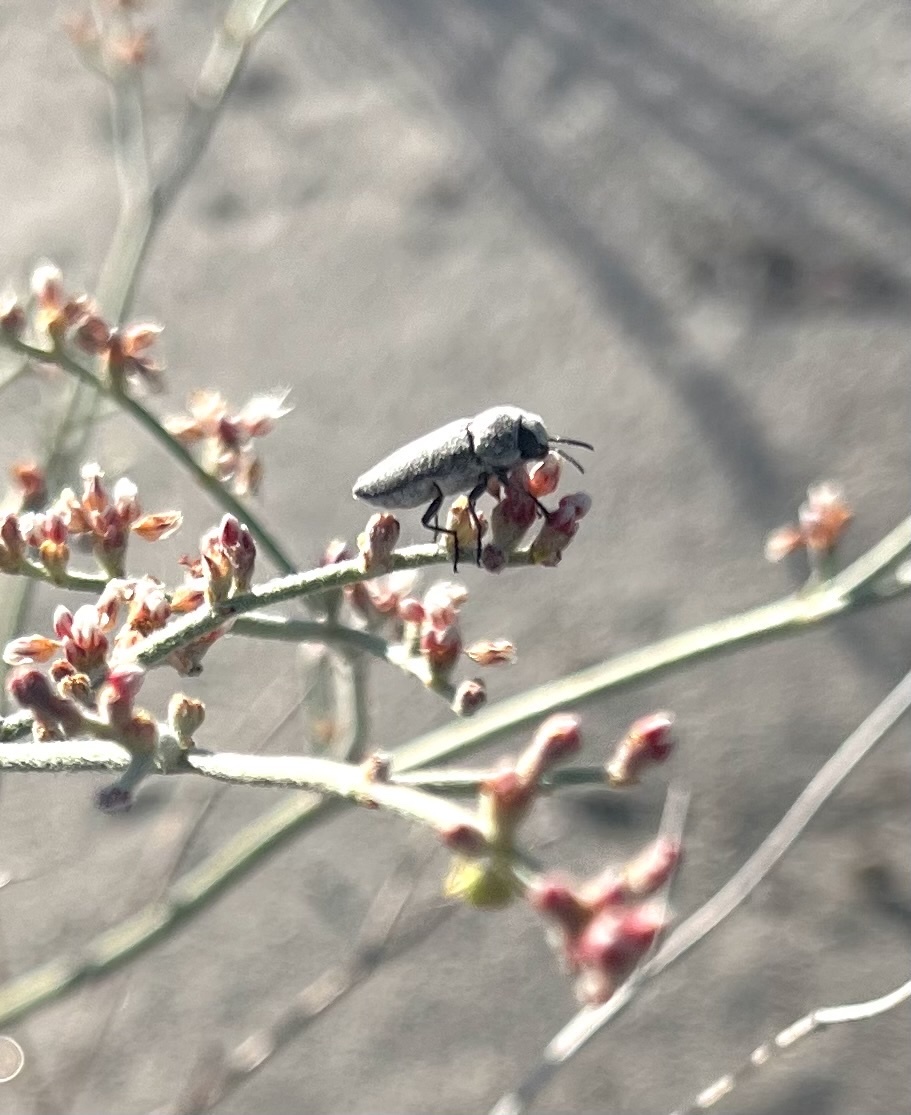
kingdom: Animalia
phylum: Arthropoda
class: Insecta
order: Coleoptera
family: Buprestidae
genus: Nanularia
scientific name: Nanularia monoensis
